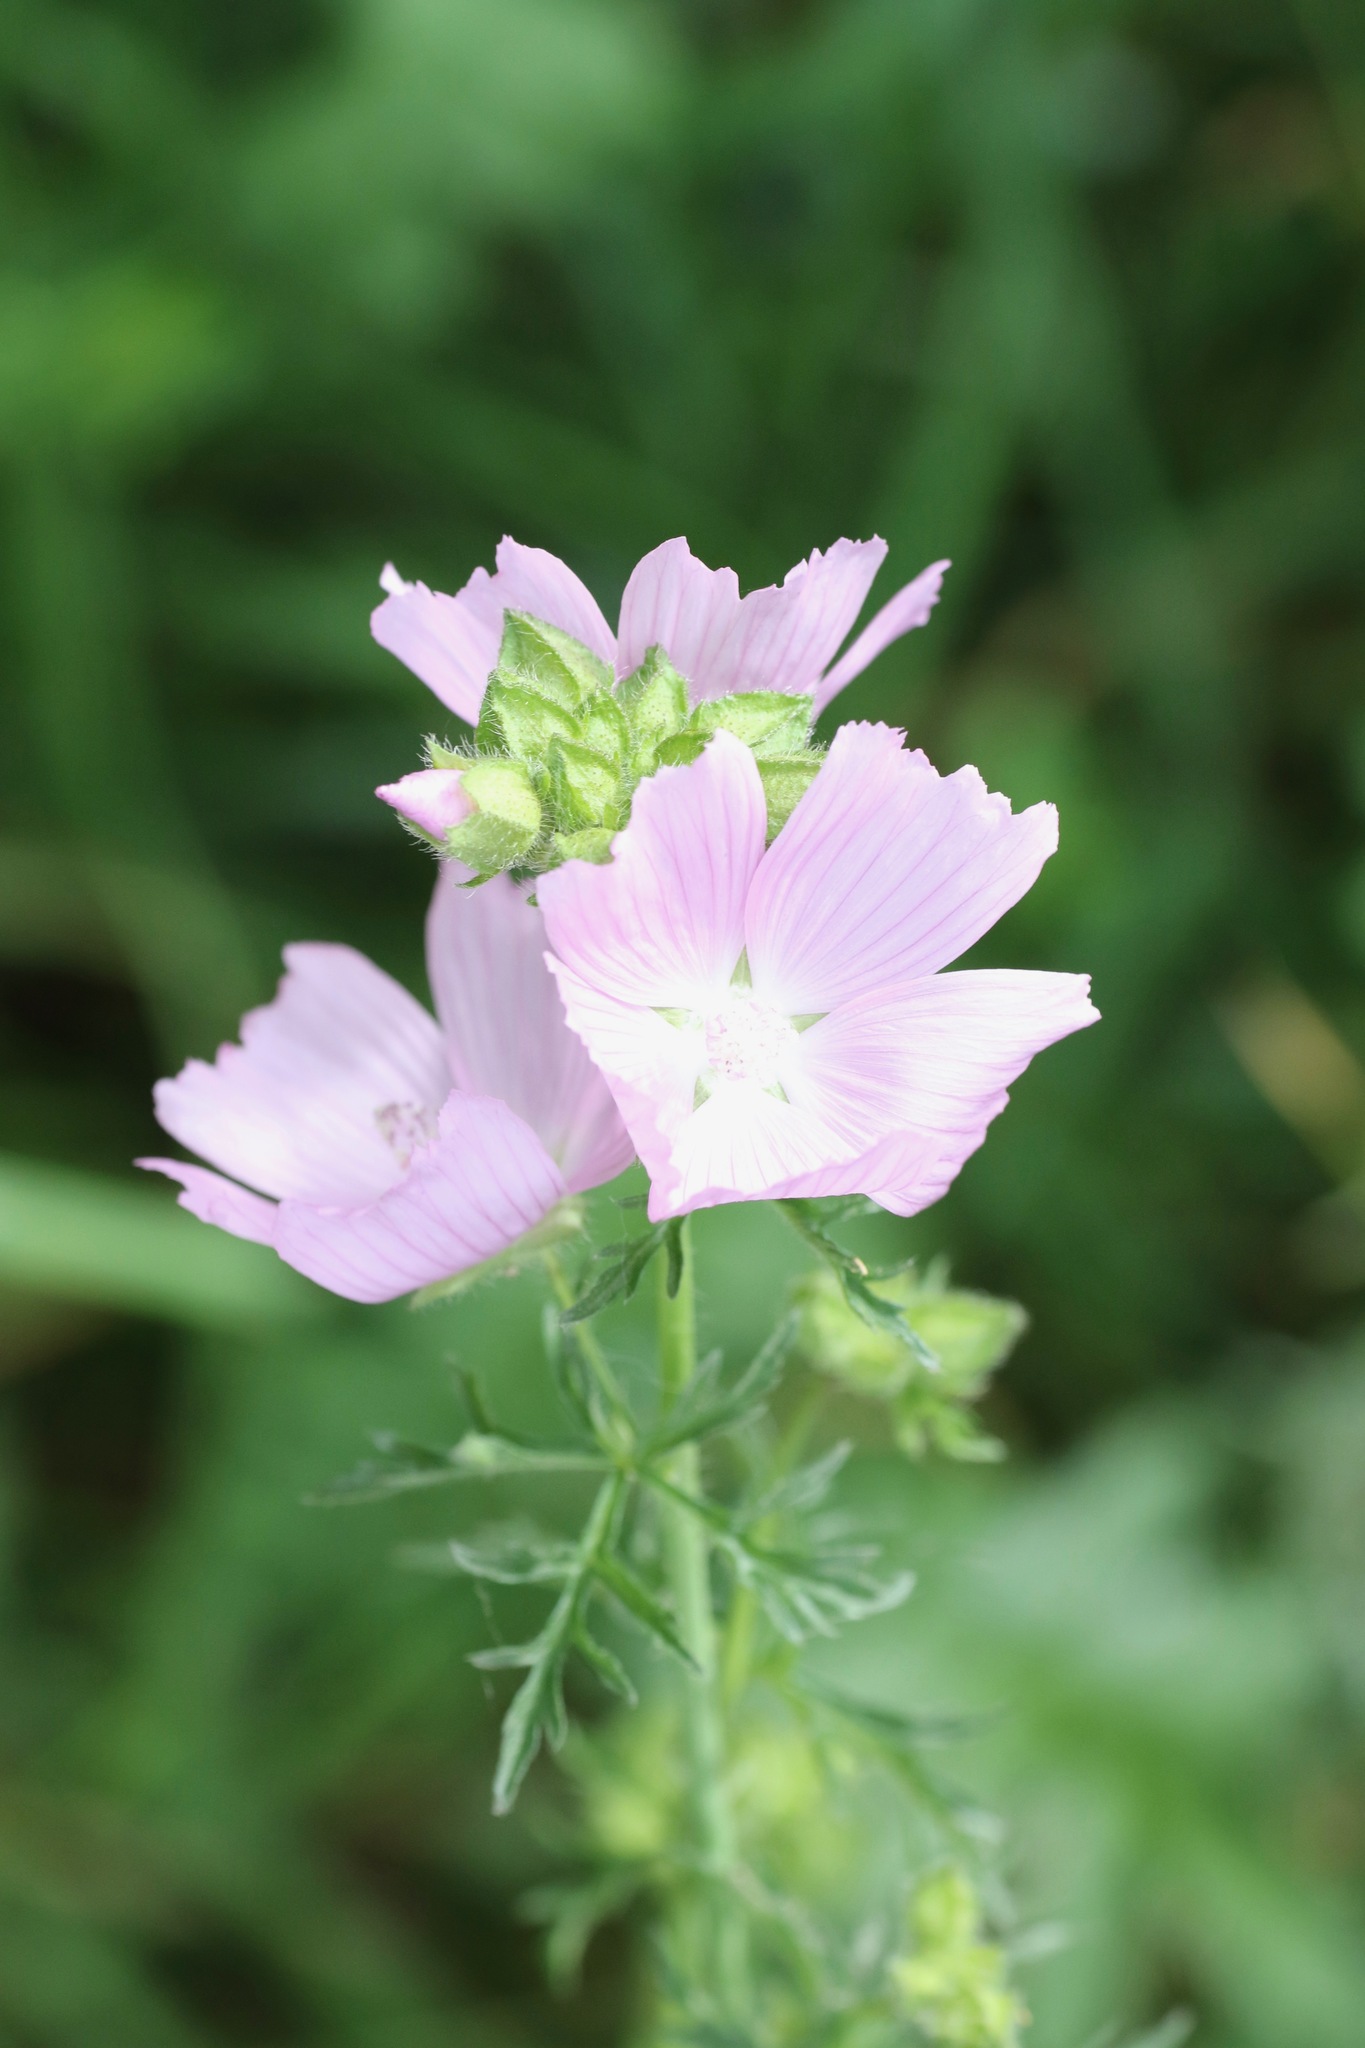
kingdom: Plantae
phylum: Tracheophyta
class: Magnoliopsida
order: Malvales
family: Malvaceae
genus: Malva
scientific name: Malva moschata
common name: Musk mallow
